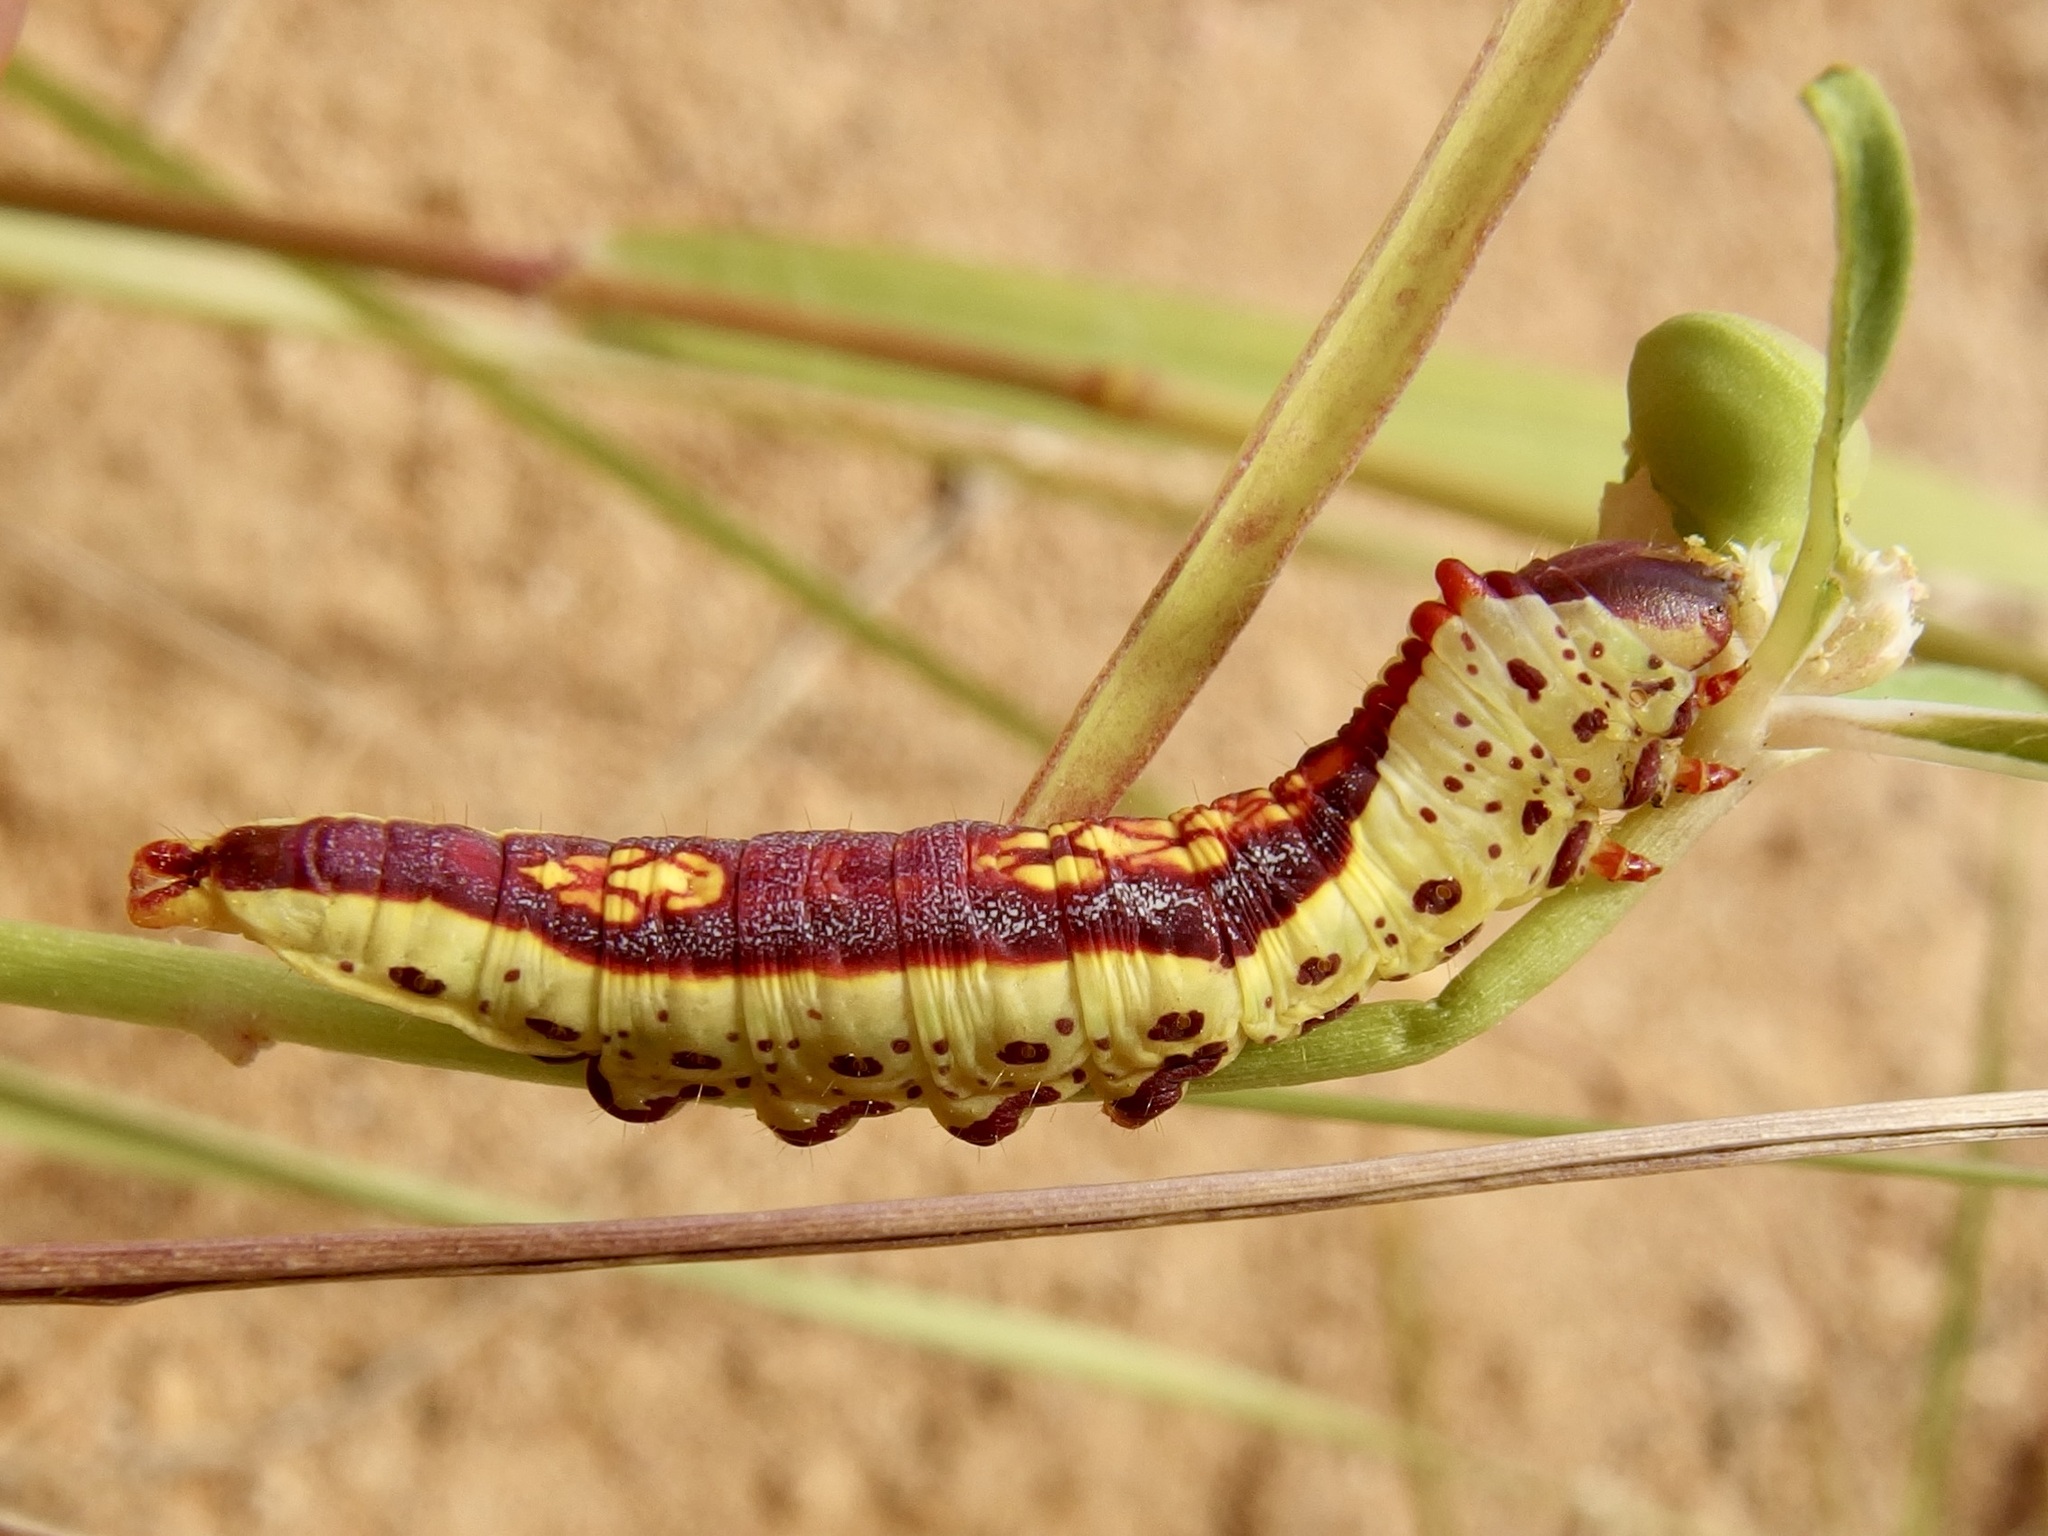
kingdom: Animalia
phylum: Arthropoda
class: Insecta
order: Lepidoptera
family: Notodontidae
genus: Theroa
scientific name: Theroa zethus
